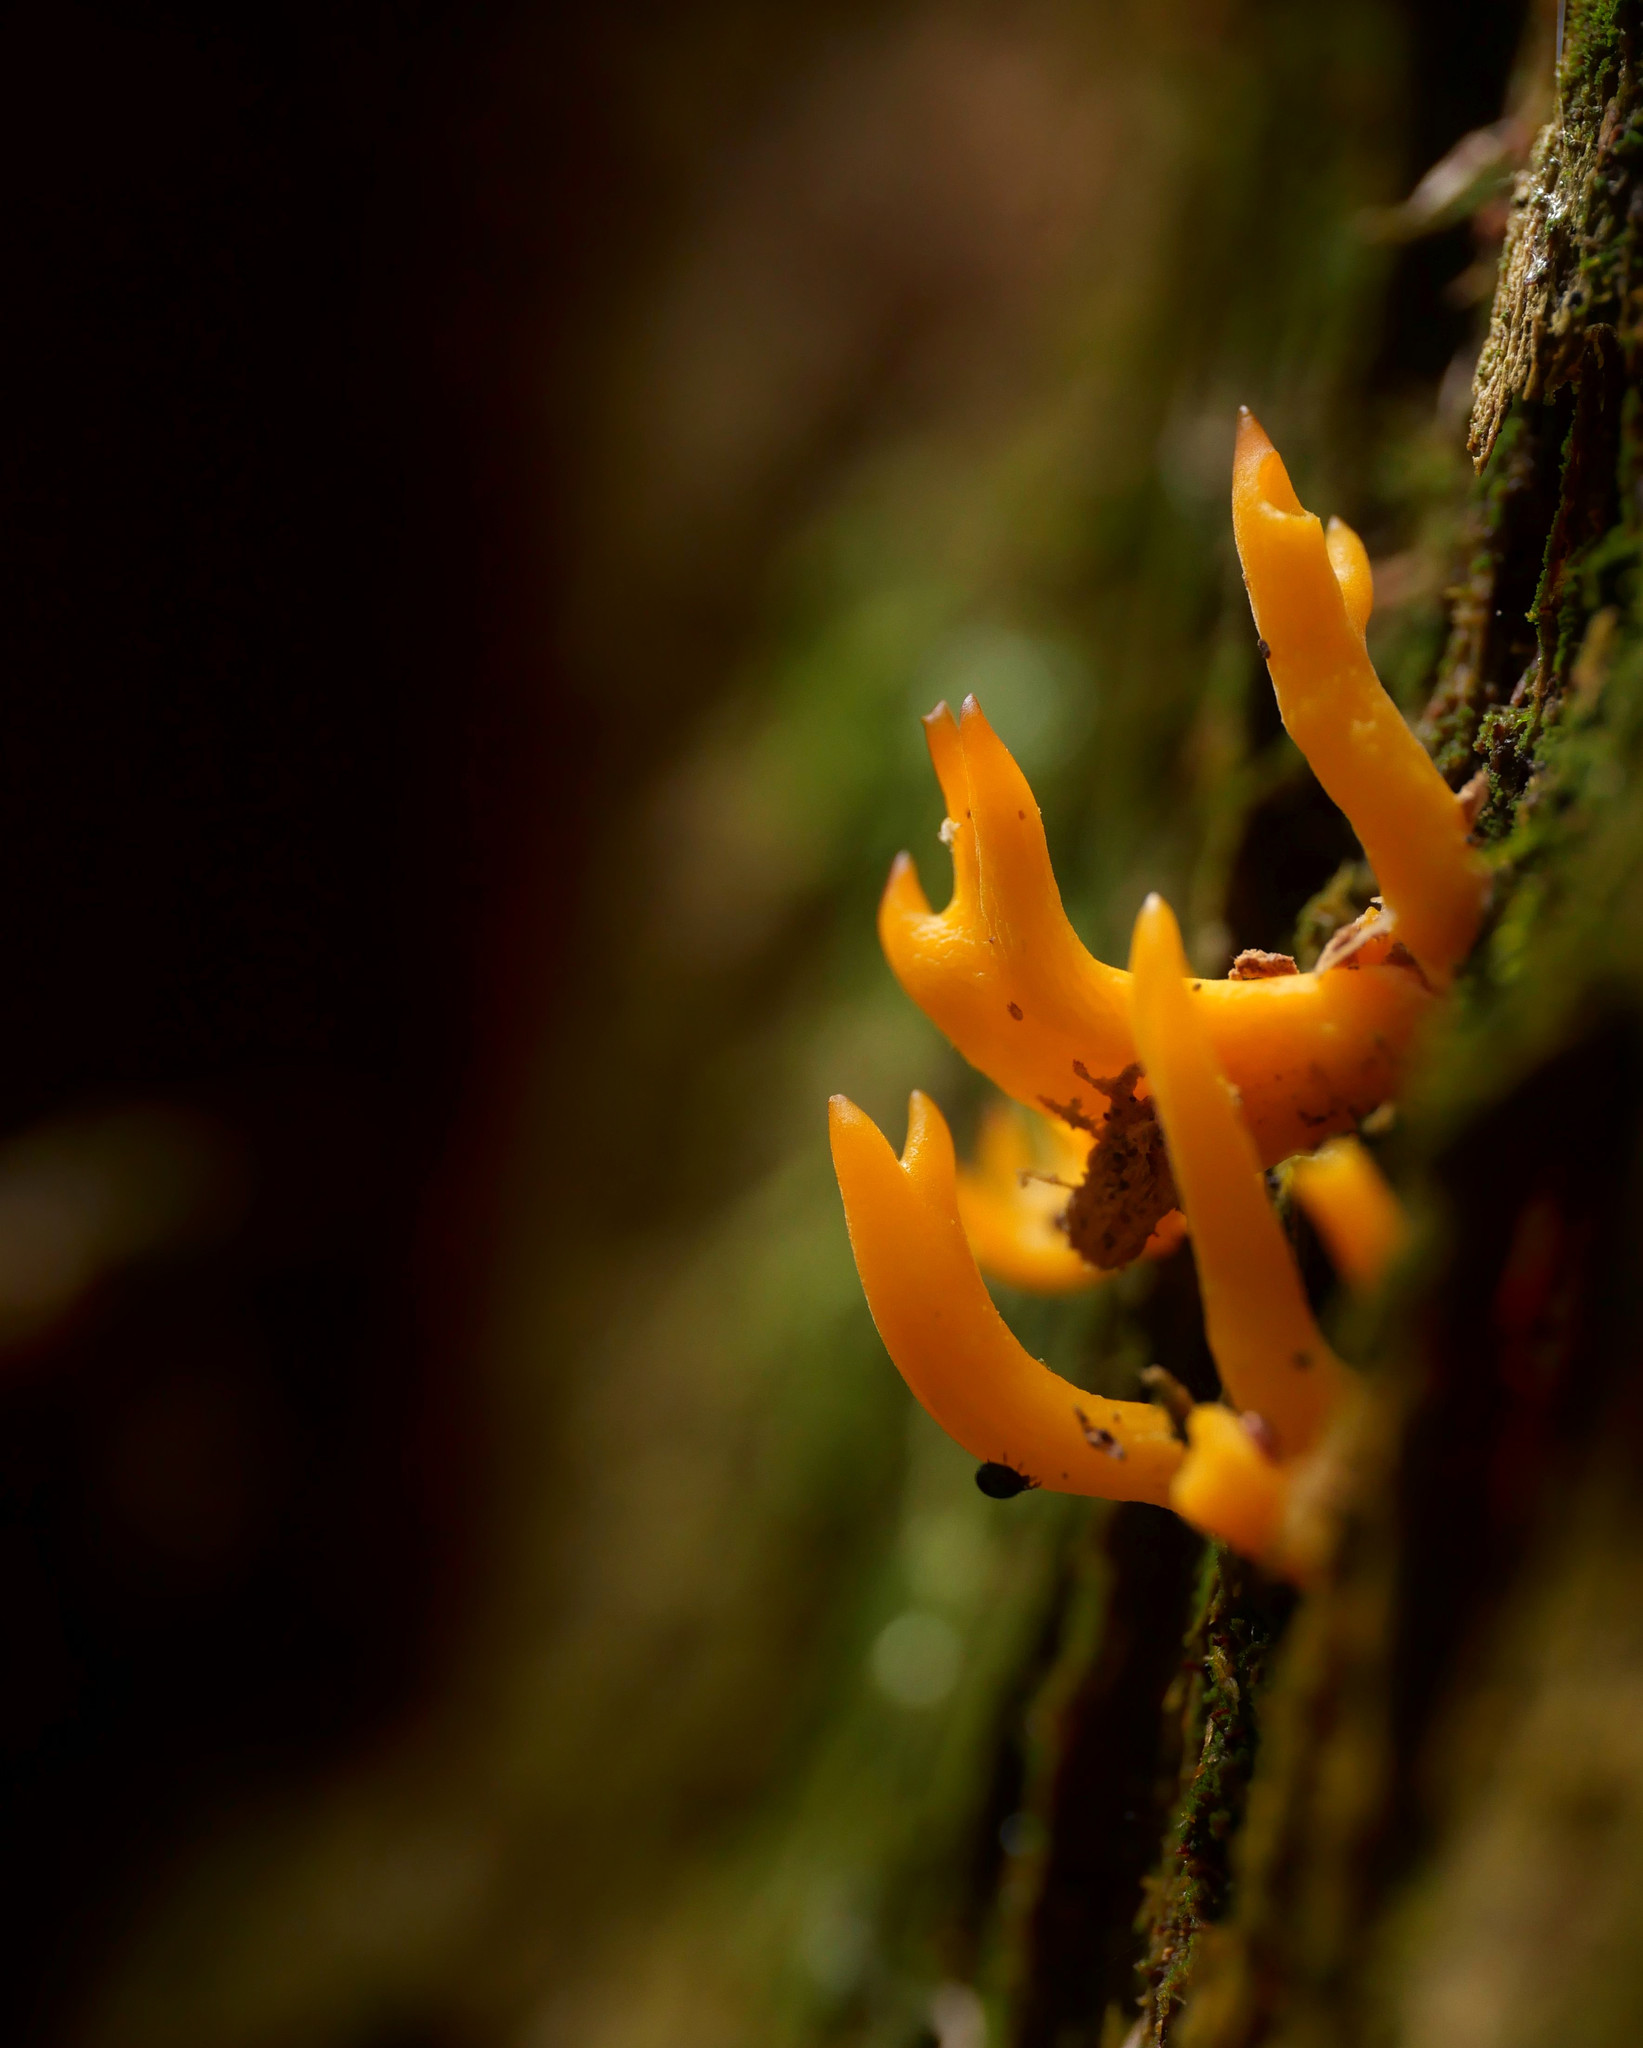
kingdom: Fungi
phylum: Basidiomycota
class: Dacrymycetes
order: Dacrymycetales
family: Dacrymycetaceae
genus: Calocera
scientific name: Calocera viscosa
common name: Yellow stagshorn
